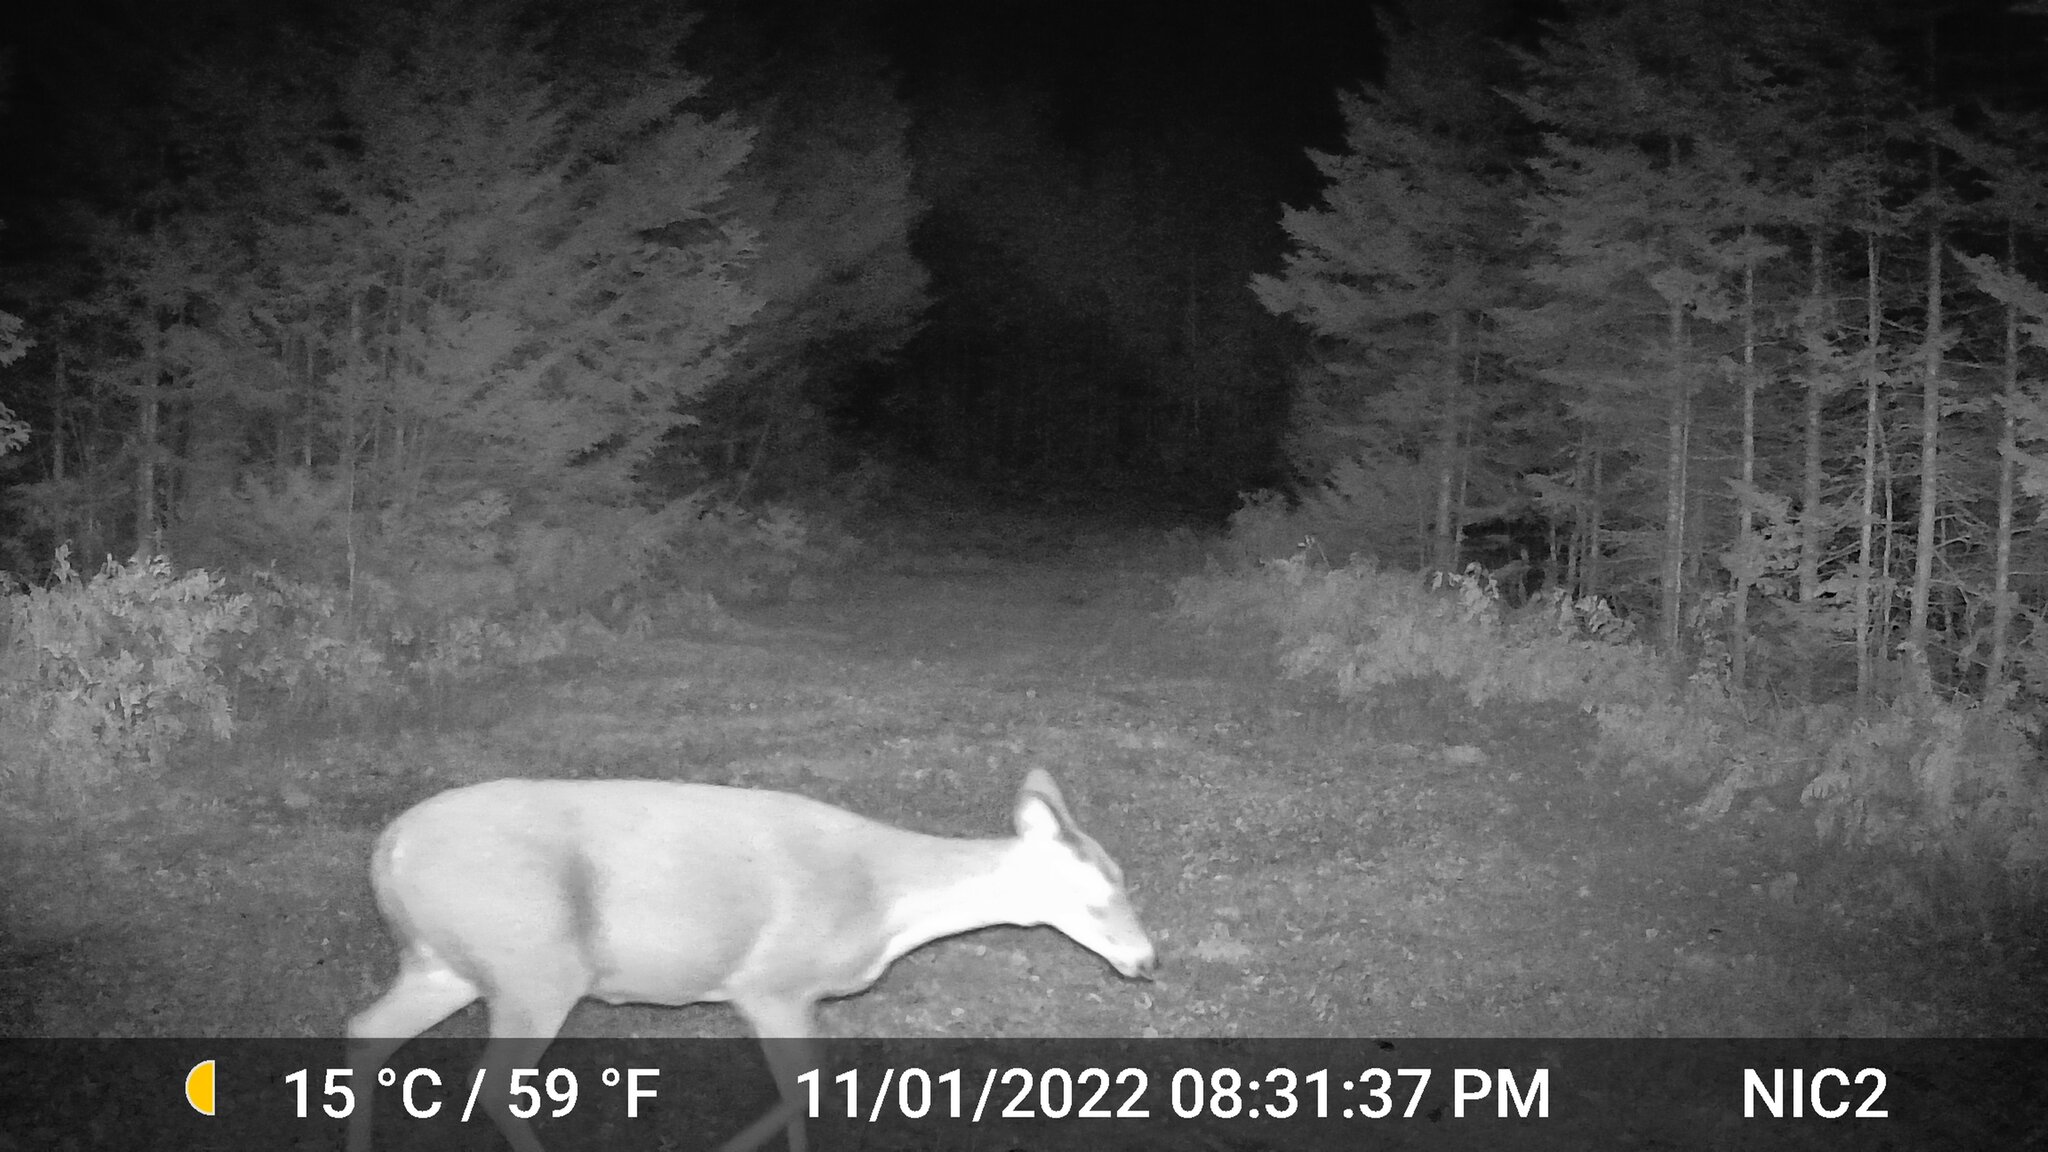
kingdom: Animalia
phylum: Chordata
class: Mammalia
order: Artiodactyla
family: Cervidae
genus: Odocoileus
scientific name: Odocoileus virginianus
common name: White-tailed deer
